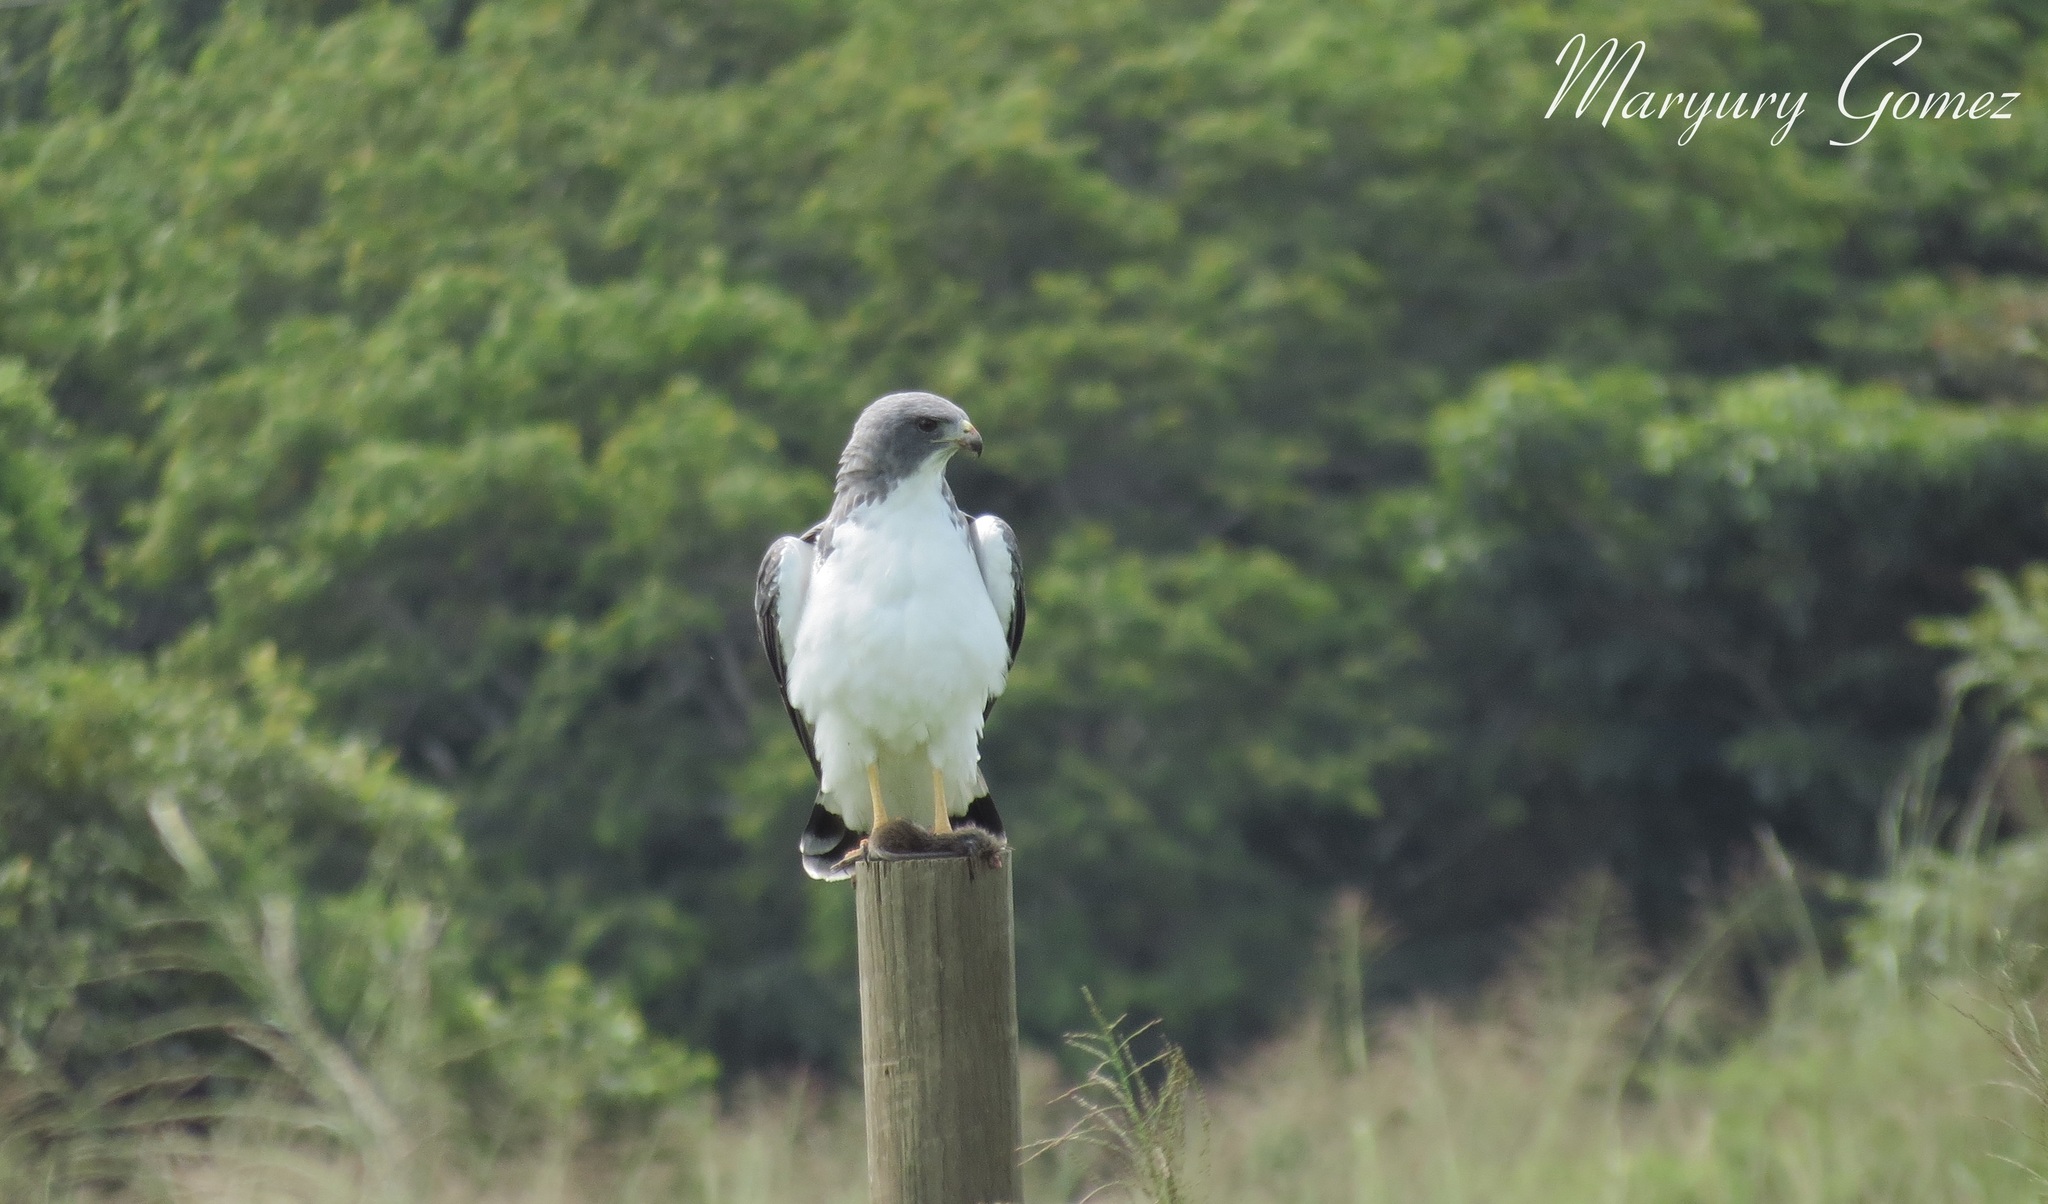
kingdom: Animalia
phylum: Chordata
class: Aves
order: Accipitriformes
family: Accipitridae
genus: Buteo
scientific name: Buteo albicaudatus
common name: White-tailed hawk
